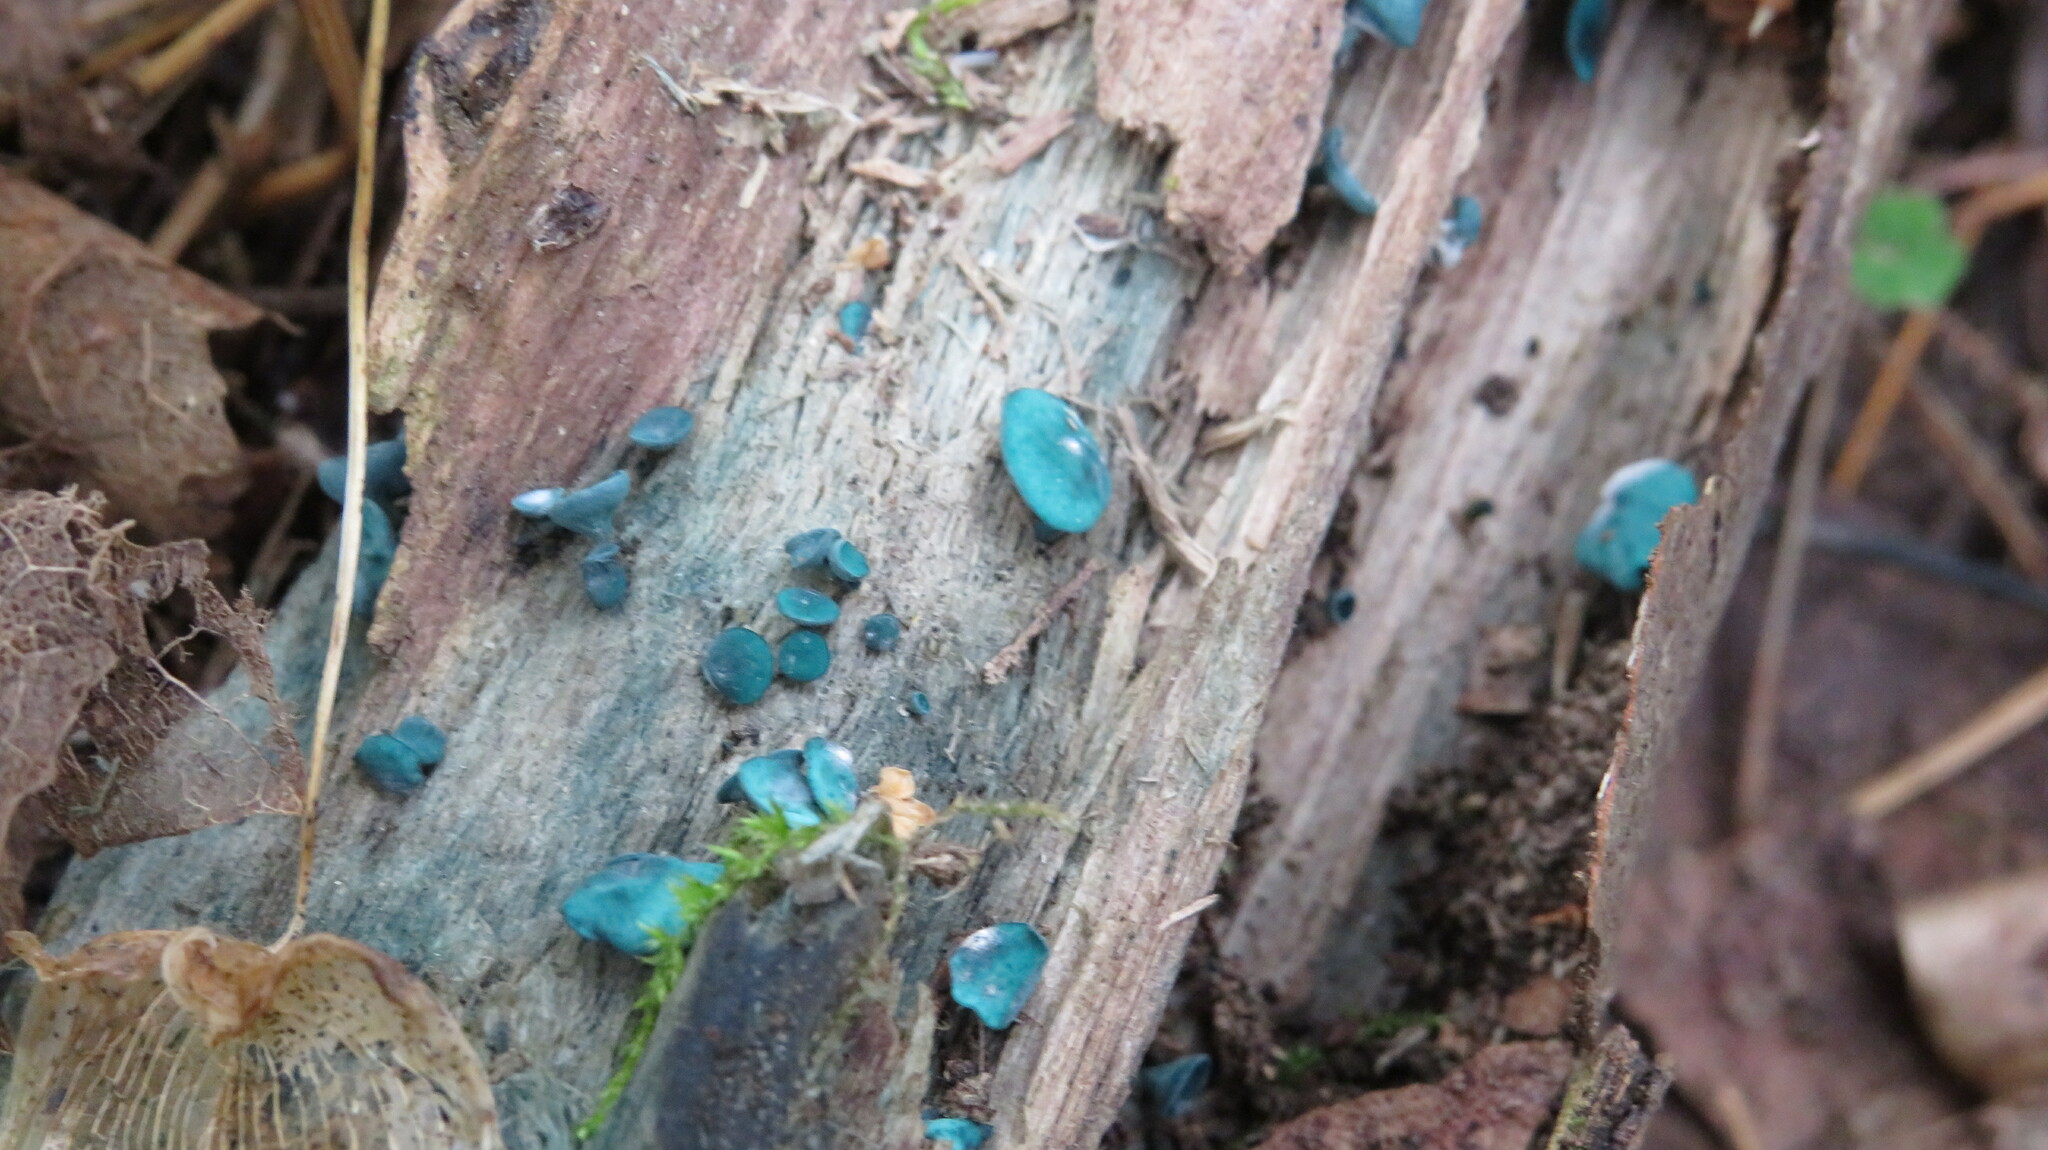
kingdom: Fungi
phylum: Ascomycota
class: Leotiomycetes
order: Helotiales
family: Chlorociboriaceae
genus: Chlorociboria
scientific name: Chlorociboria aeruginascens
